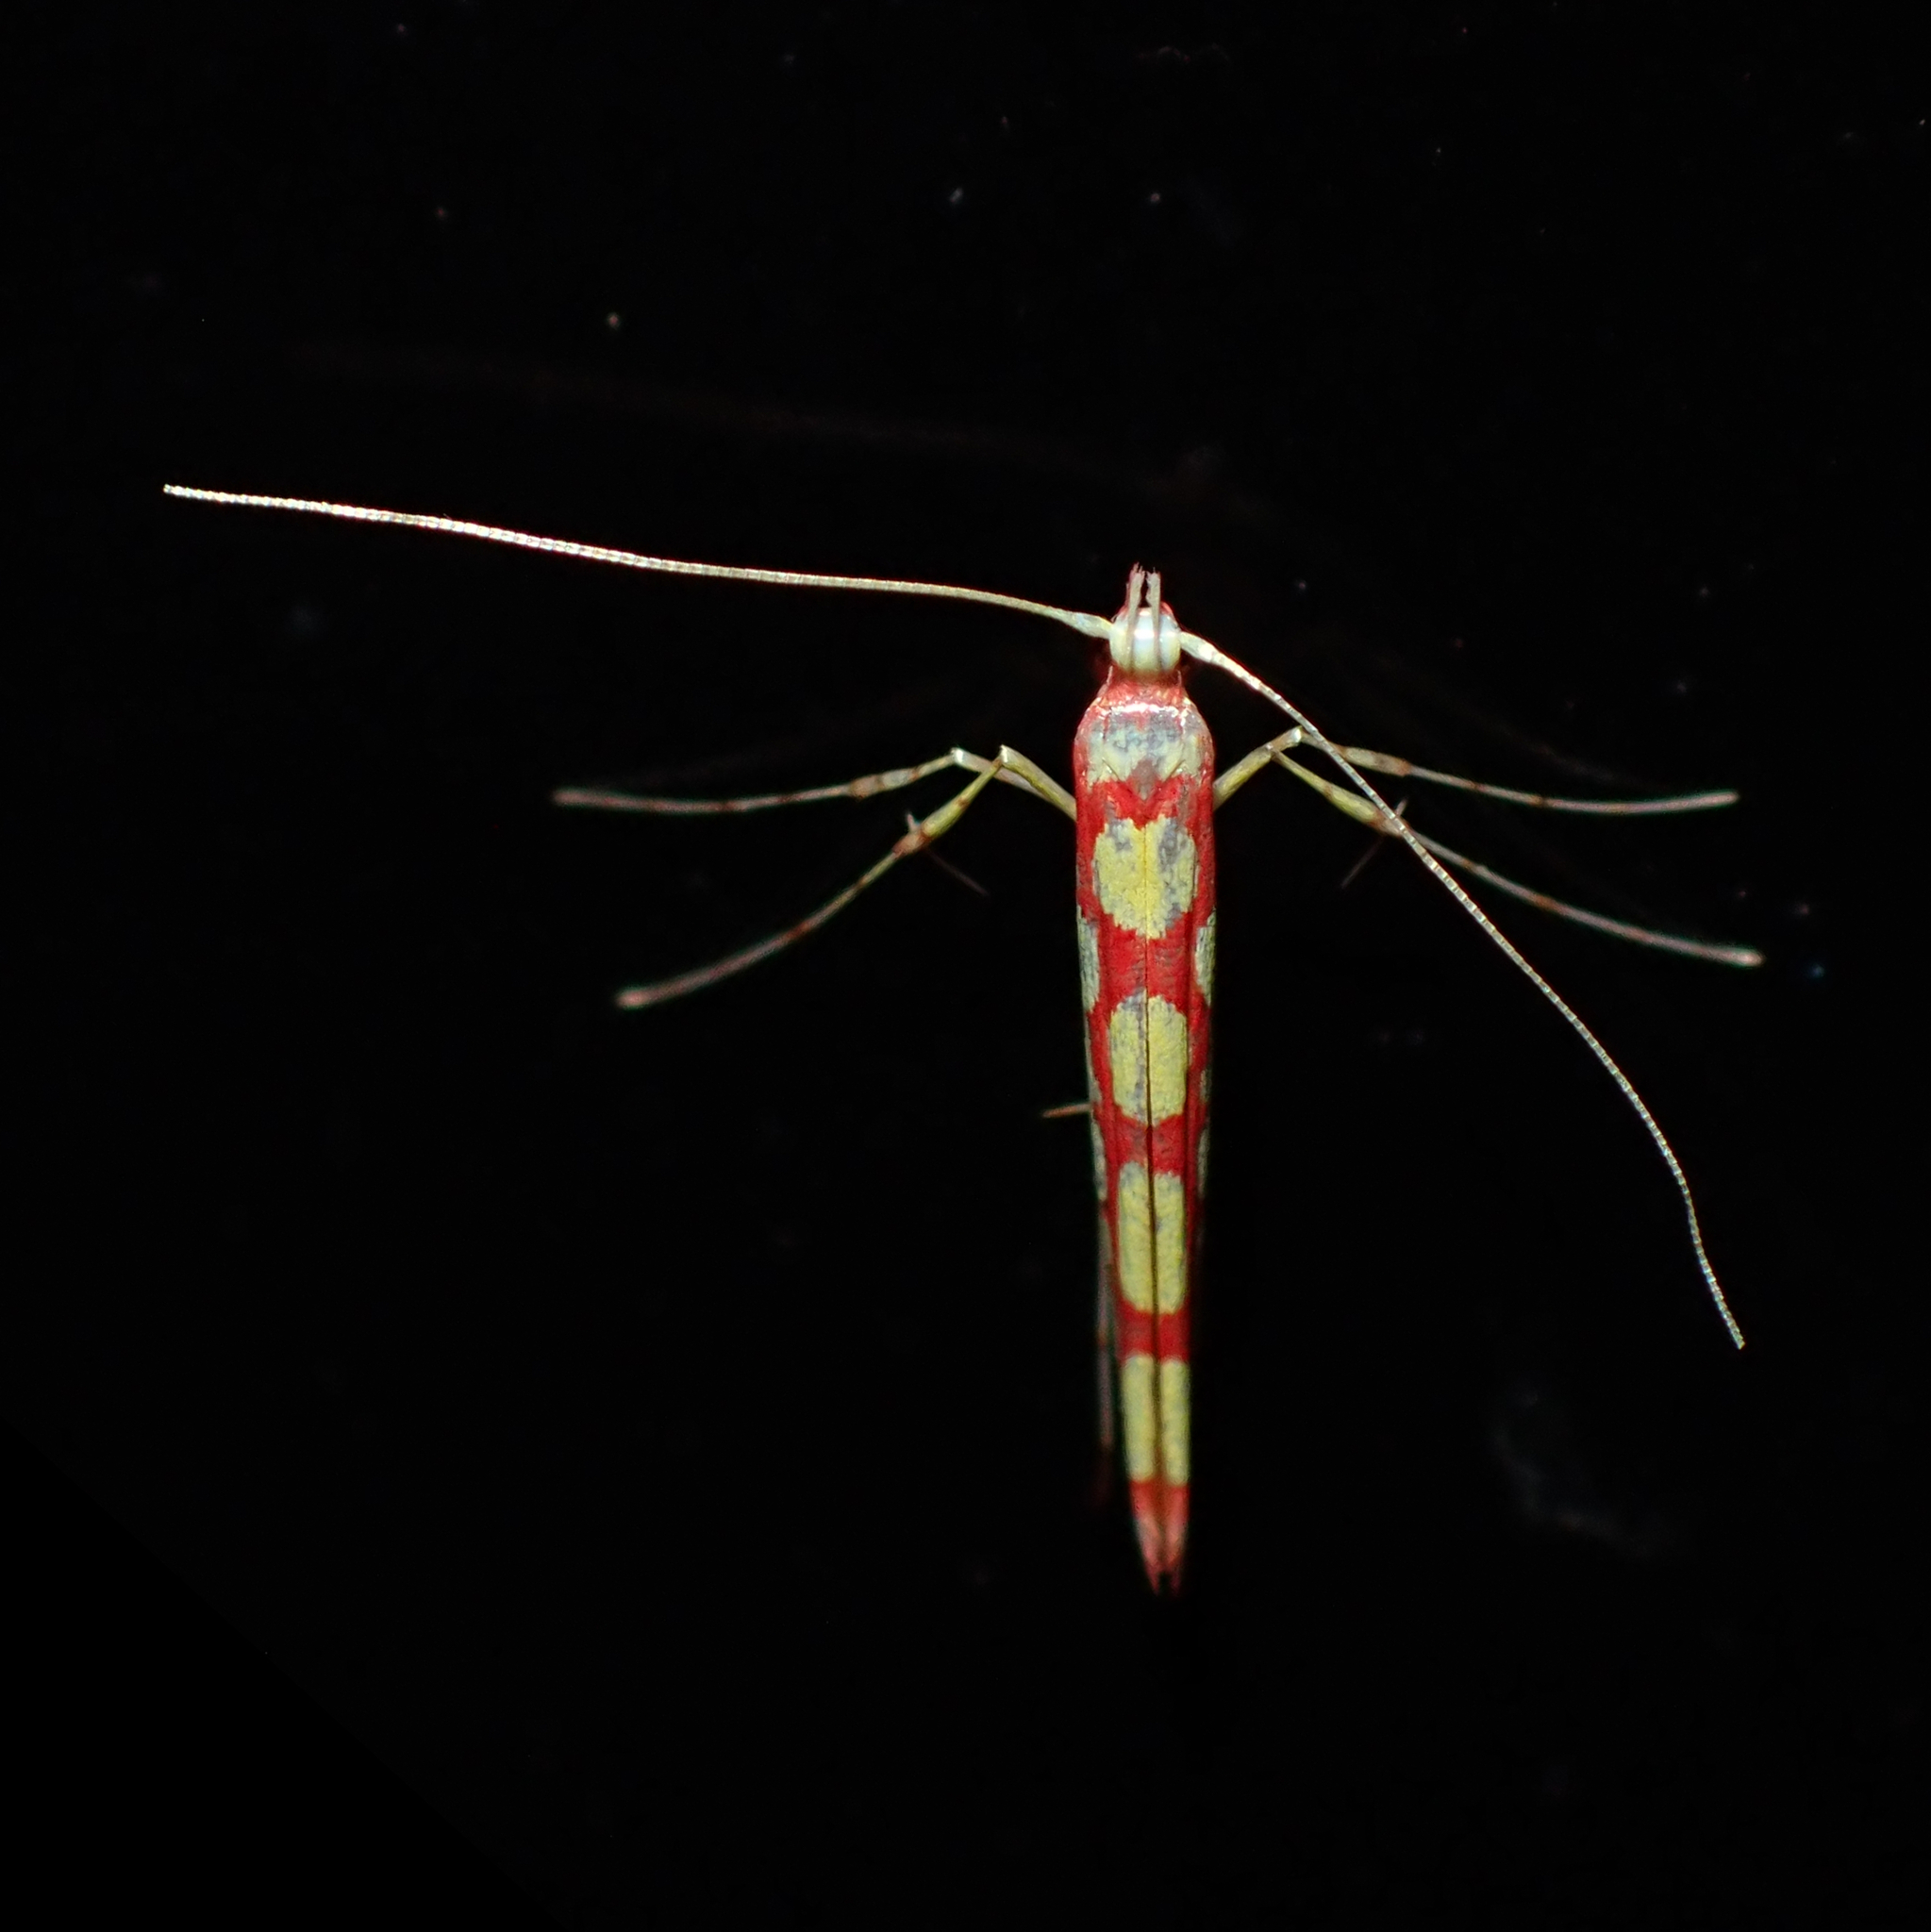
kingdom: Animalia
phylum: Arthropoda
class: Insecta
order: Lepidoptera
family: Gracillariidae
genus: Macarostola
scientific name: Macarostola miniella
